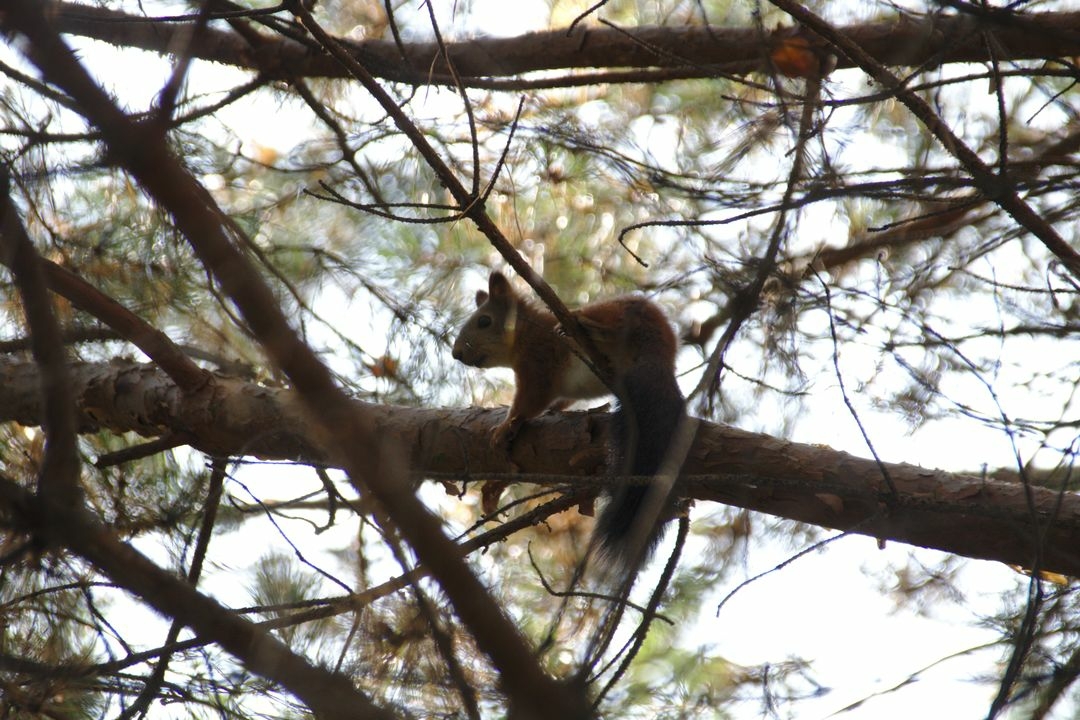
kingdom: Animalia
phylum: Chordata
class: Mammalia
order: Rodentia
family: Sciuridae
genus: Sciurus
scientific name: Sciurus vulgaris
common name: Eurasian red squirrel
